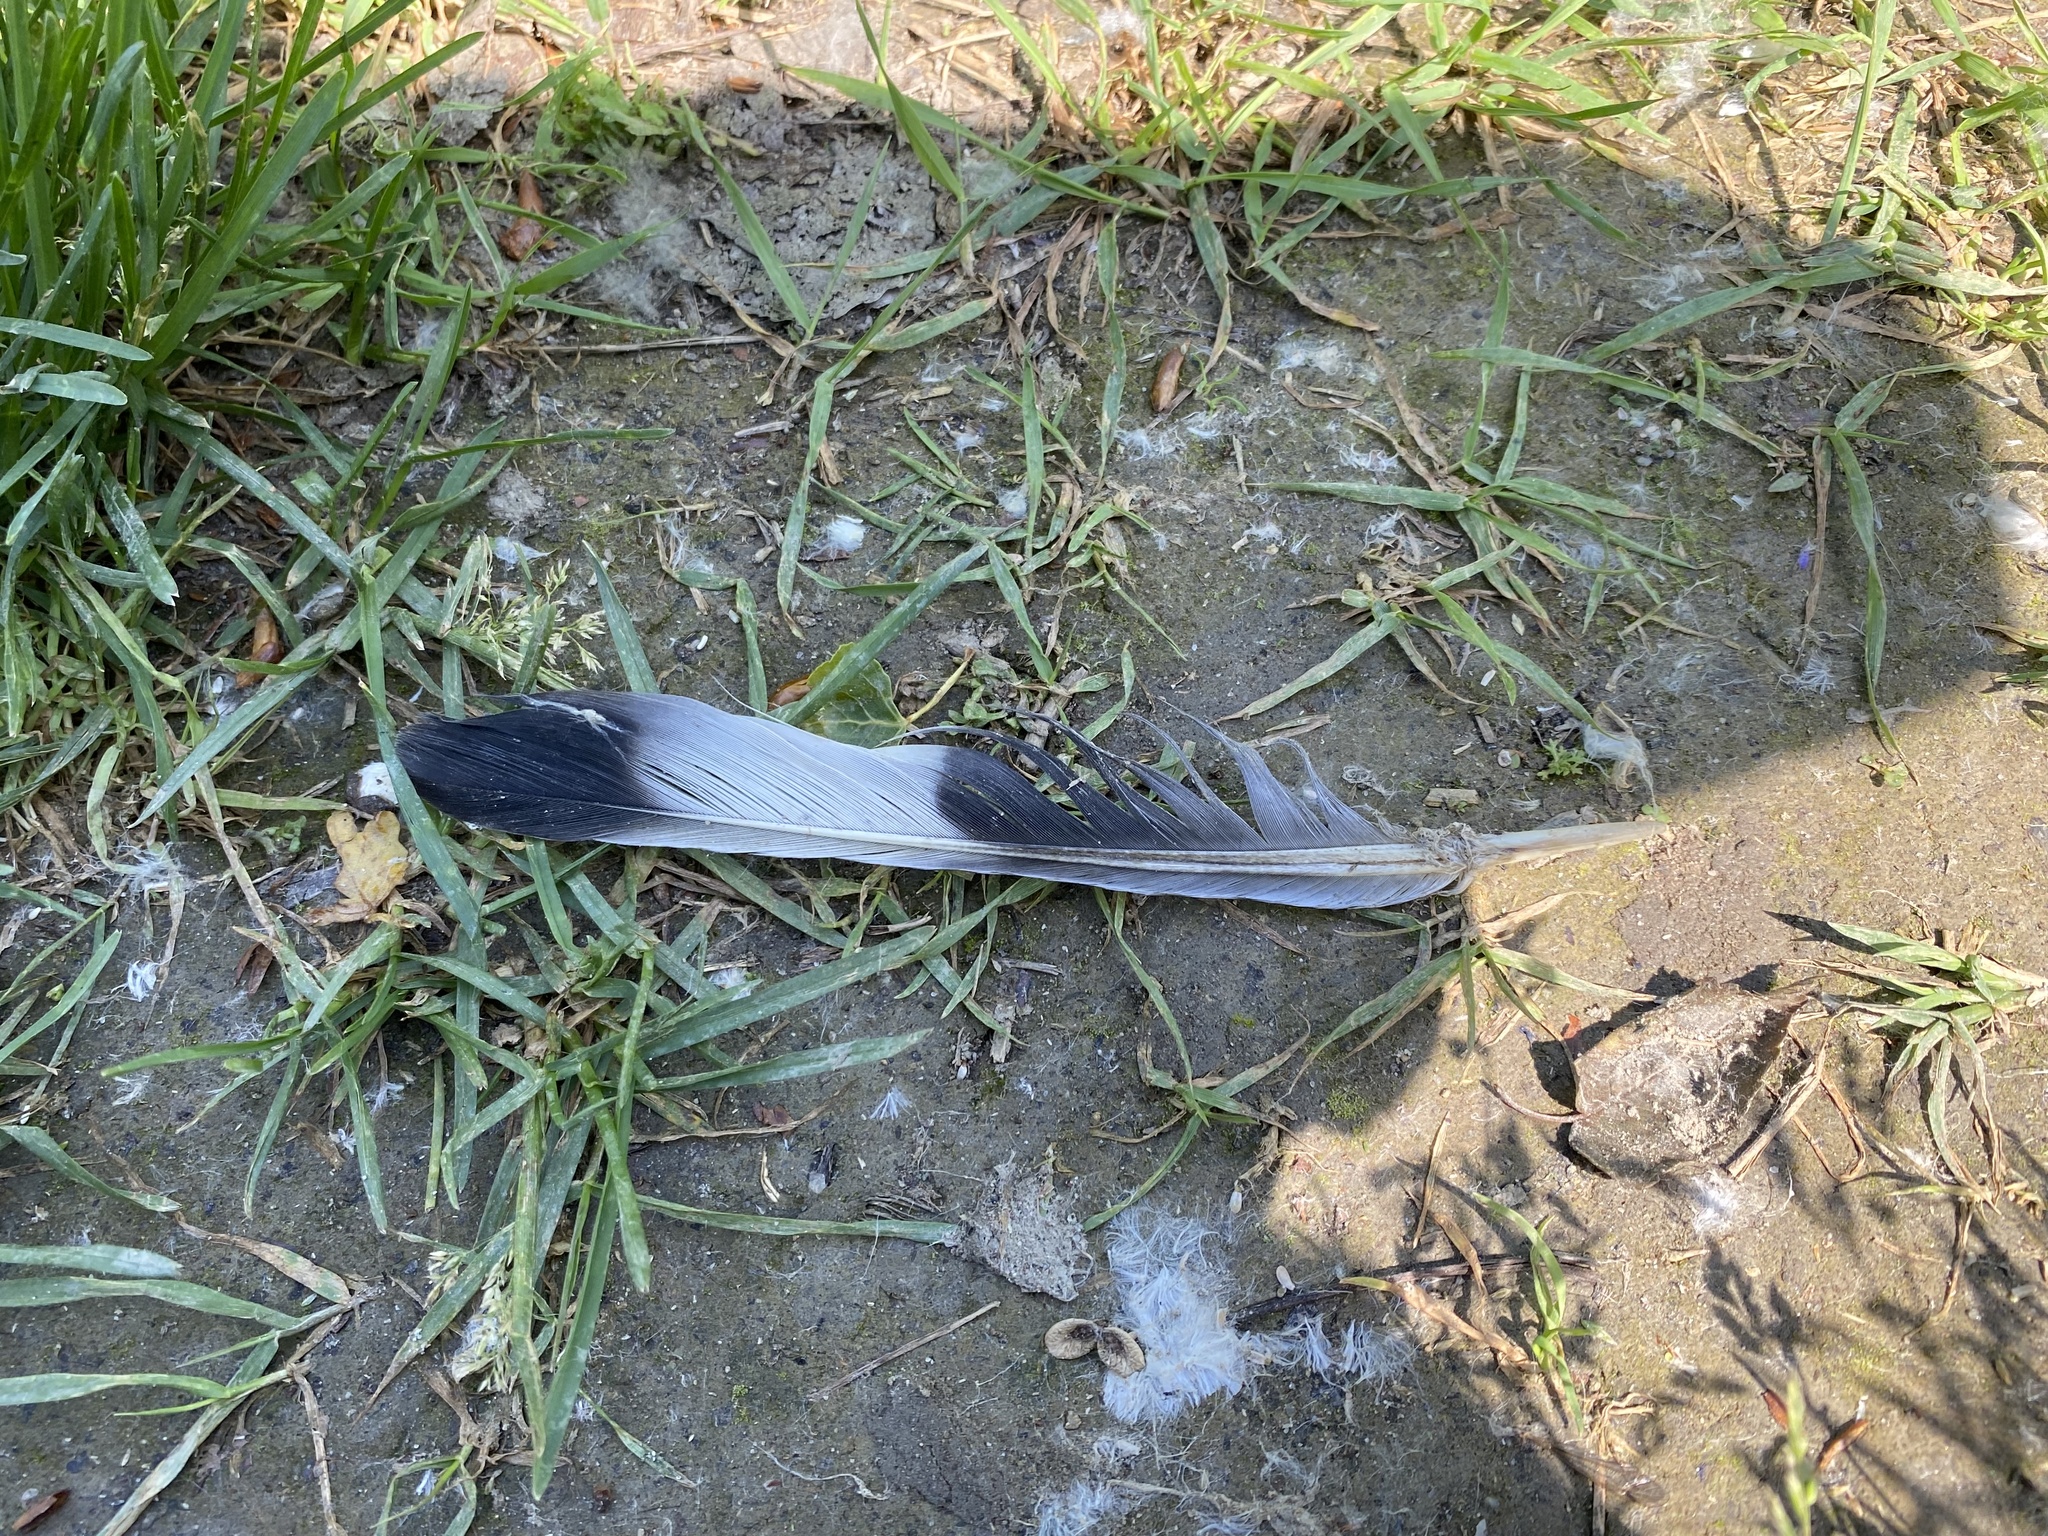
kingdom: Animalia
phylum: Chordata
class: Aves
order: Columbiformes
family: Columbidae
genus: Columba
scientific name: Columba palumbus
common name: Common wood pigeon
